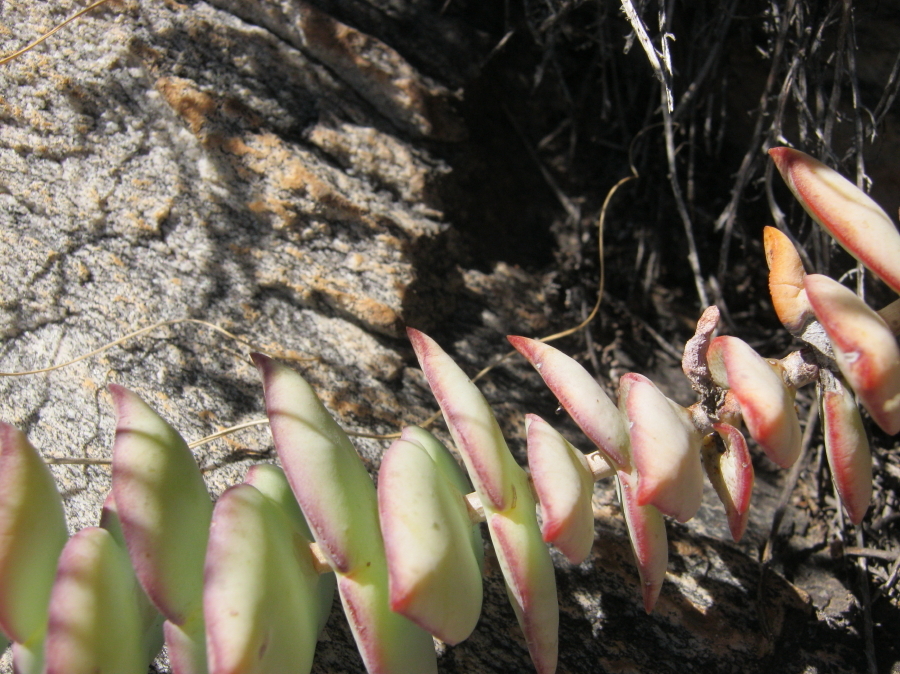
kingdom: Plantae
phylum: Tracheophyta
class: Magnoliopsida
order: Saxifragales
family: Crassulaceae
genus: Crassula
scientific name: Crassula perforata
